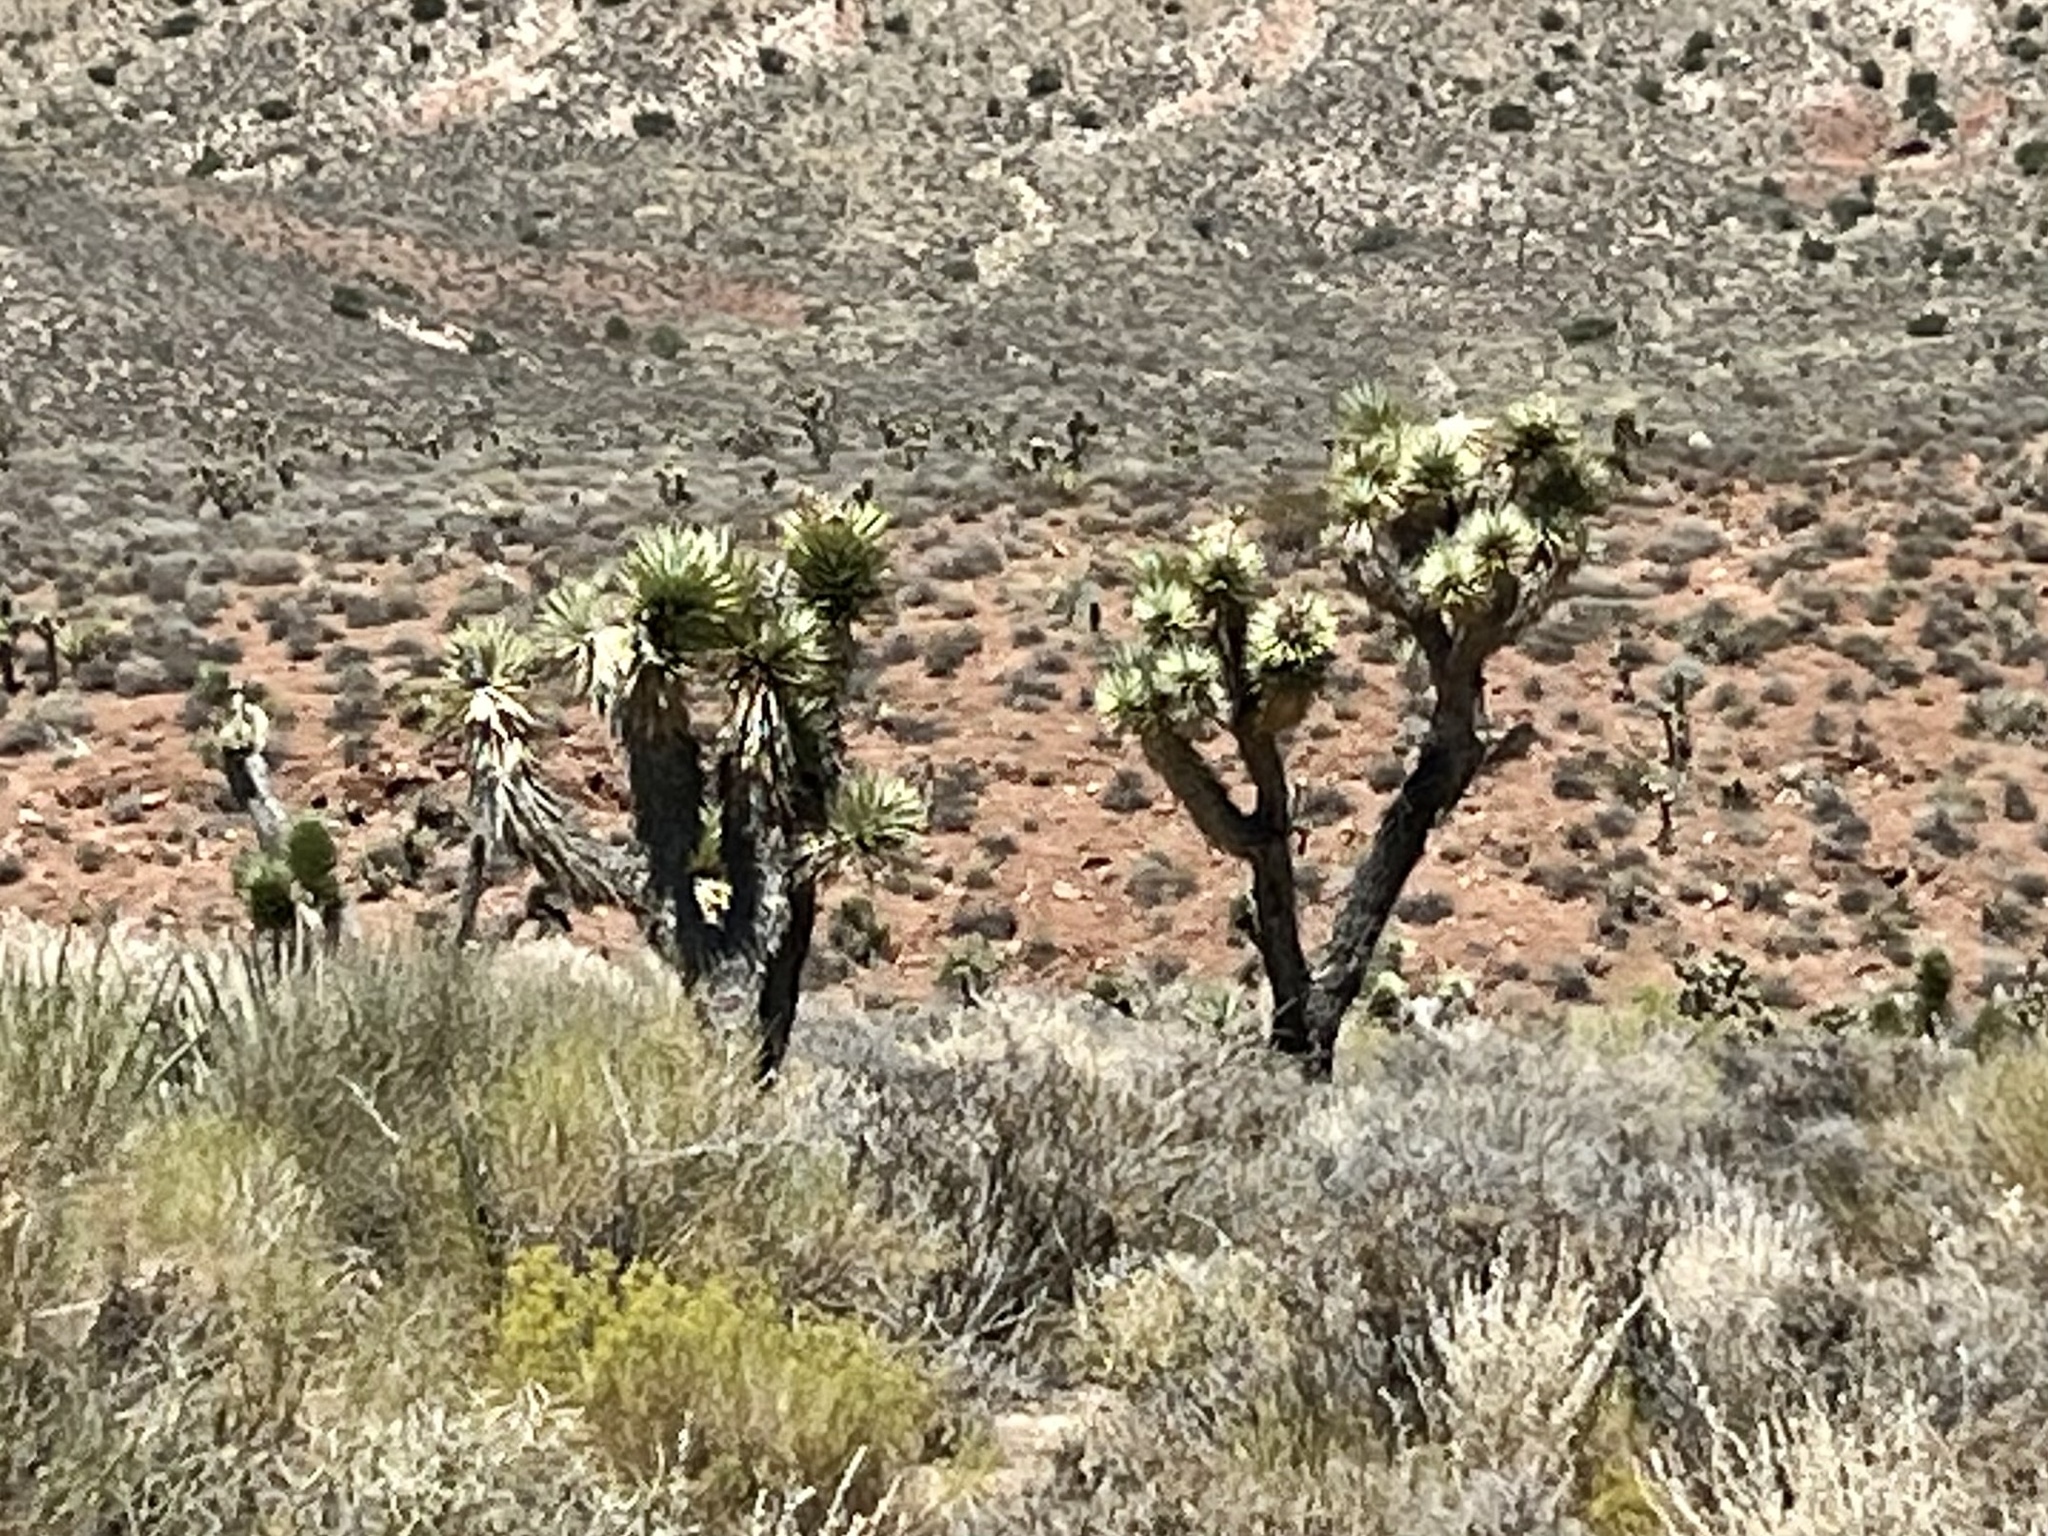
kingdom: Plantae
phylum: Tracheophyta
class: Liliopsida
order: Asparagales
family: Asparagaceae
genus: Yucca
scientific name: Yucca brevifolia
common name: Joshua tree
